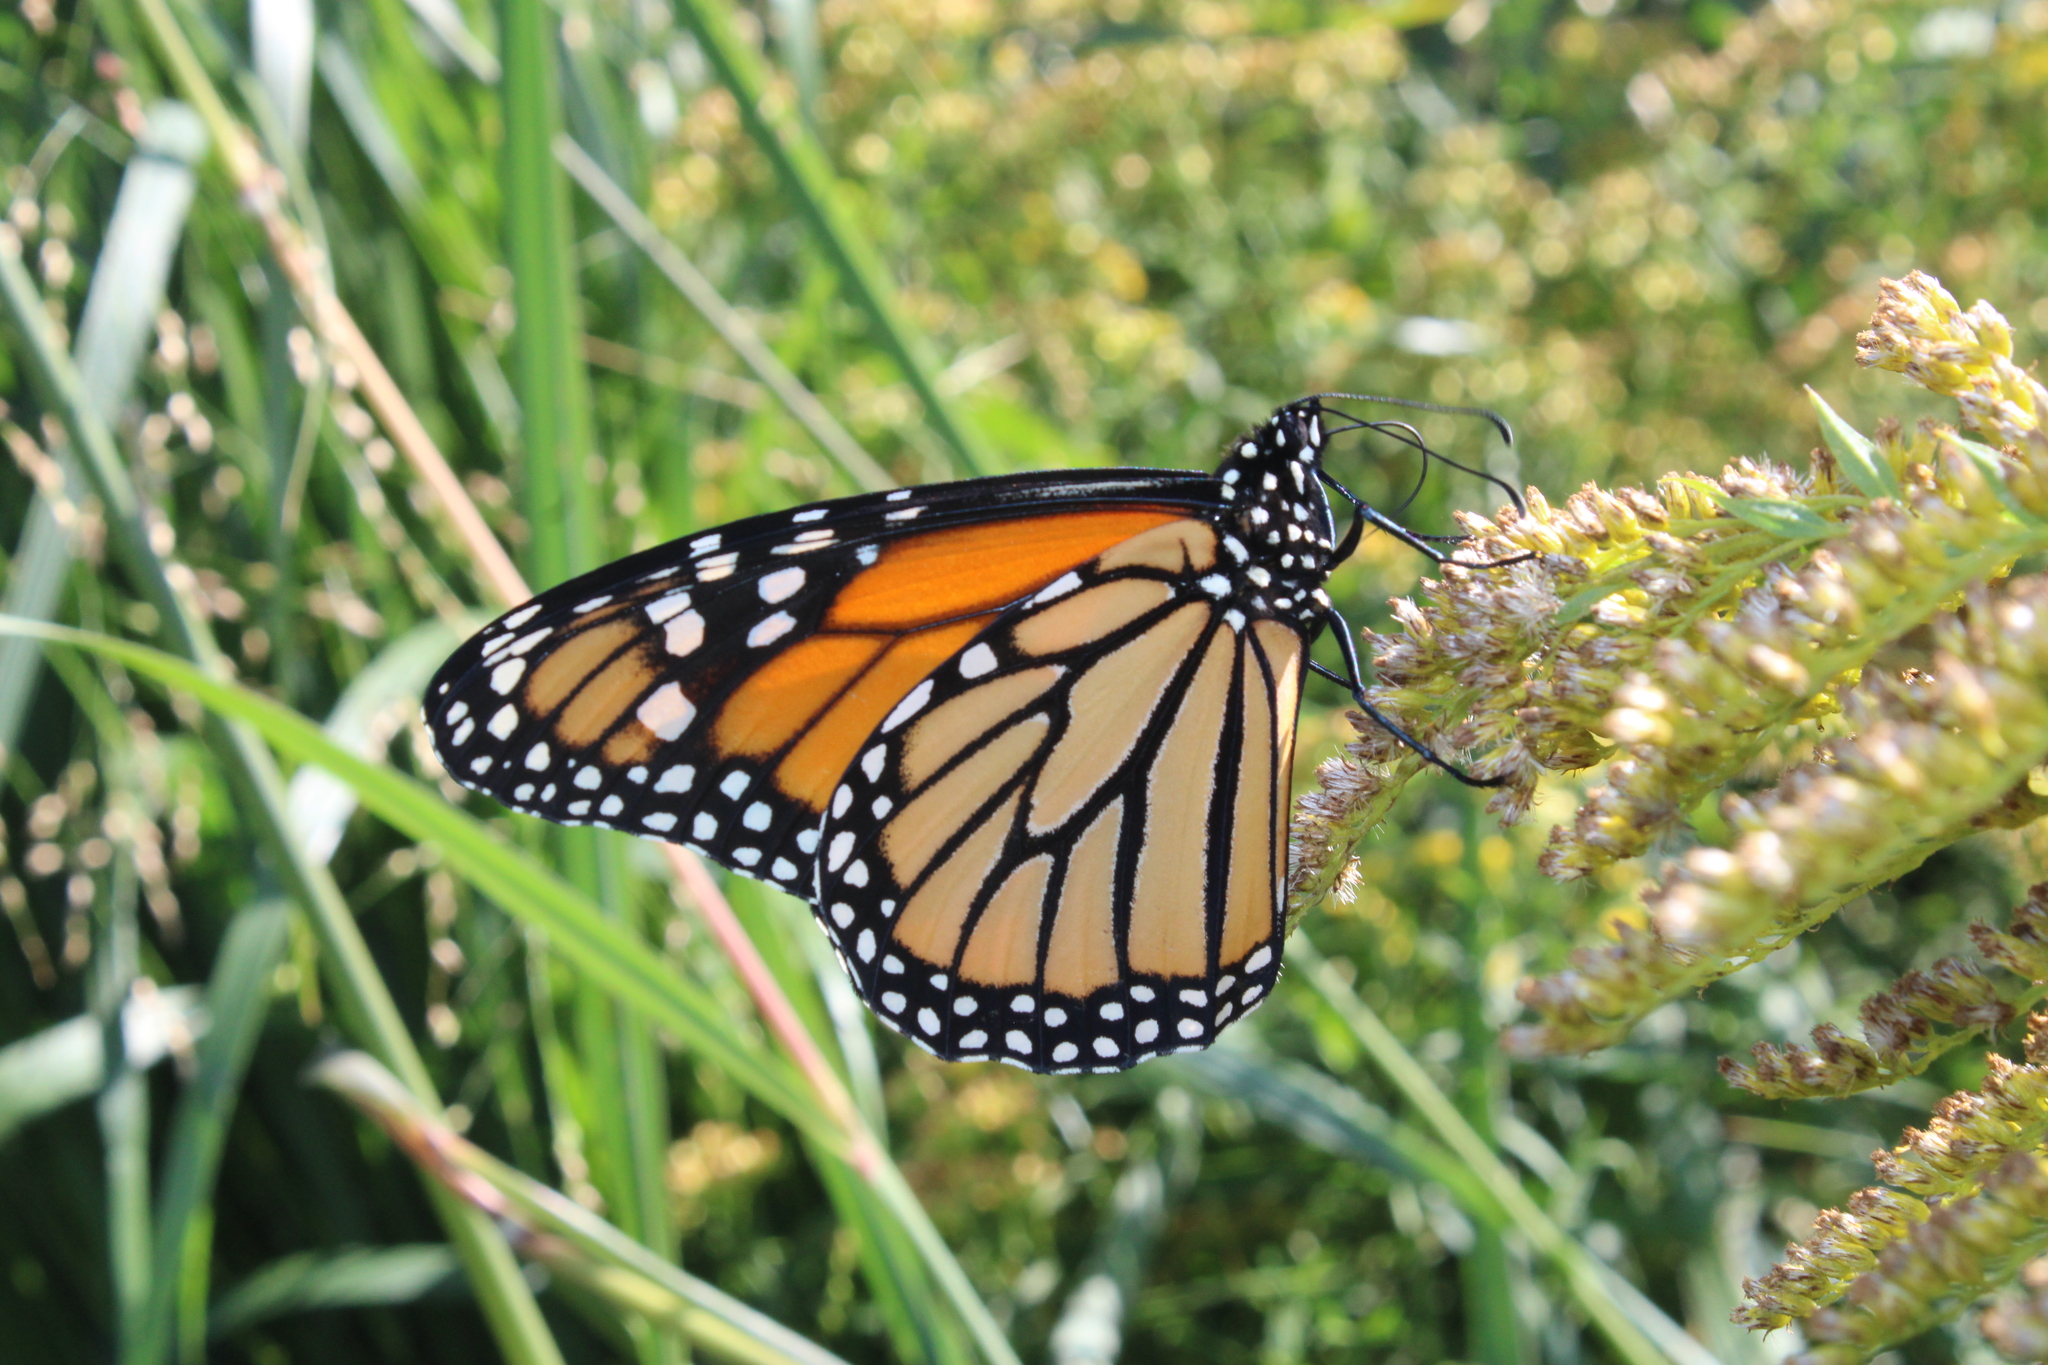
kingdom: Animalia
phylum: Arthropoda
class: Insecta
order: Lepidoptera
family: Nymphalidae
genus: Danaus
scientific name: Danaus plexippus
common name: Monarch
